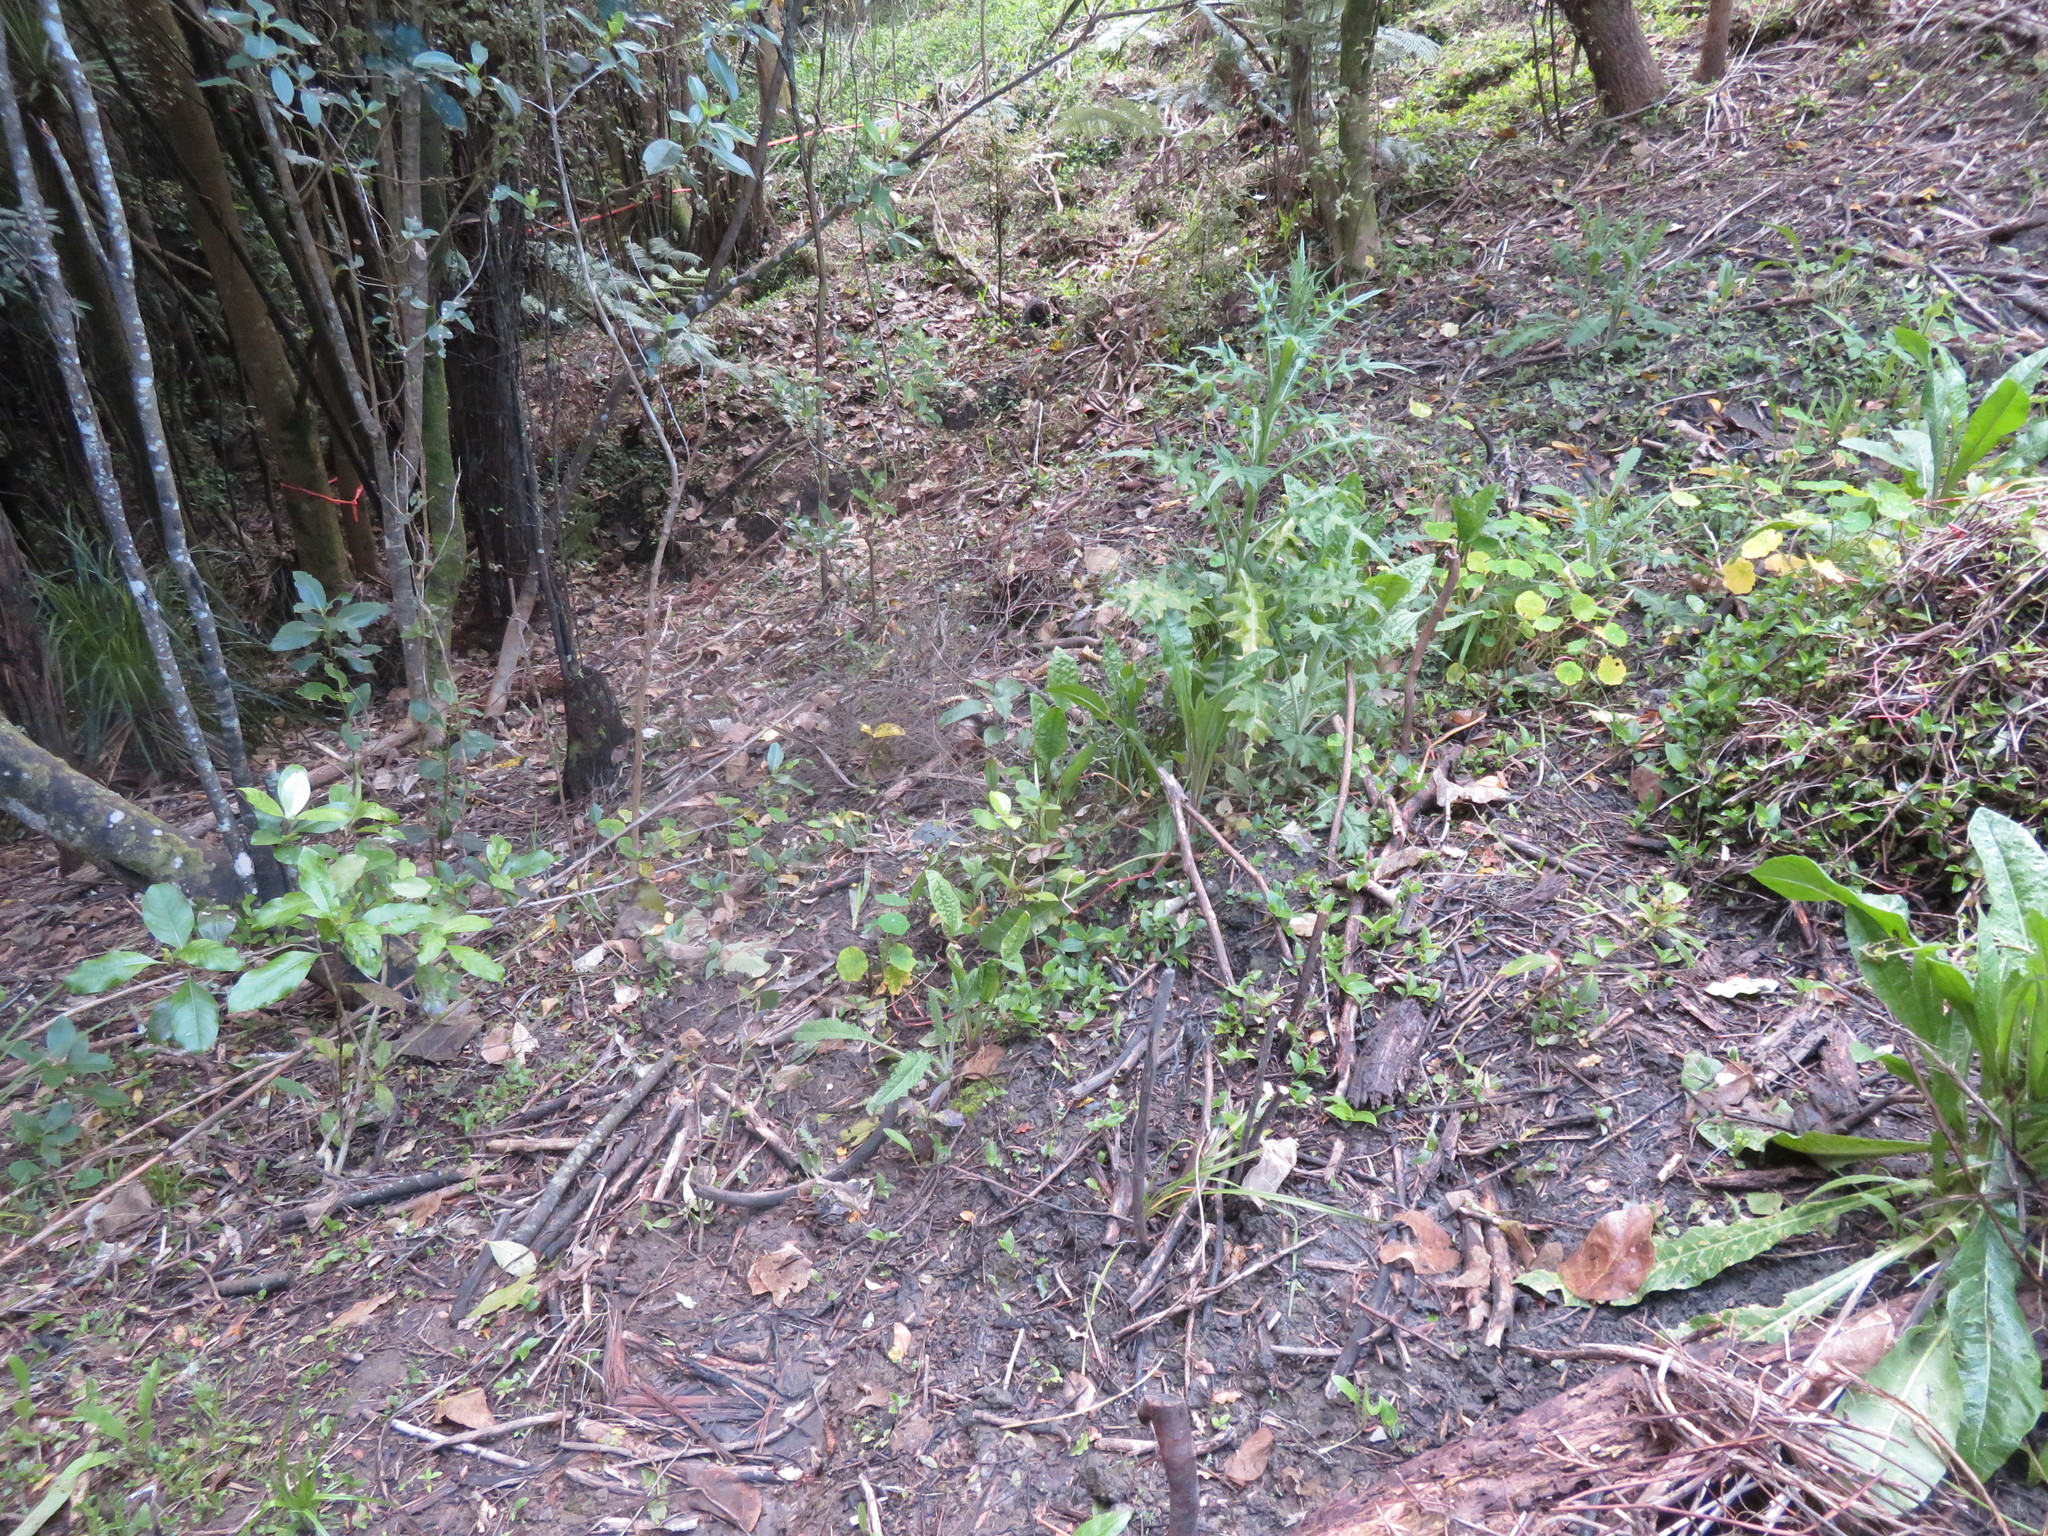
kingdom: Plantae
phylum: Tracheophyta
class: Magnoliopsida
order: Asterales
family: Asteraceae
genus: Cirsium
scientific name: Cirsium vulgare
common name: Bull thistle
